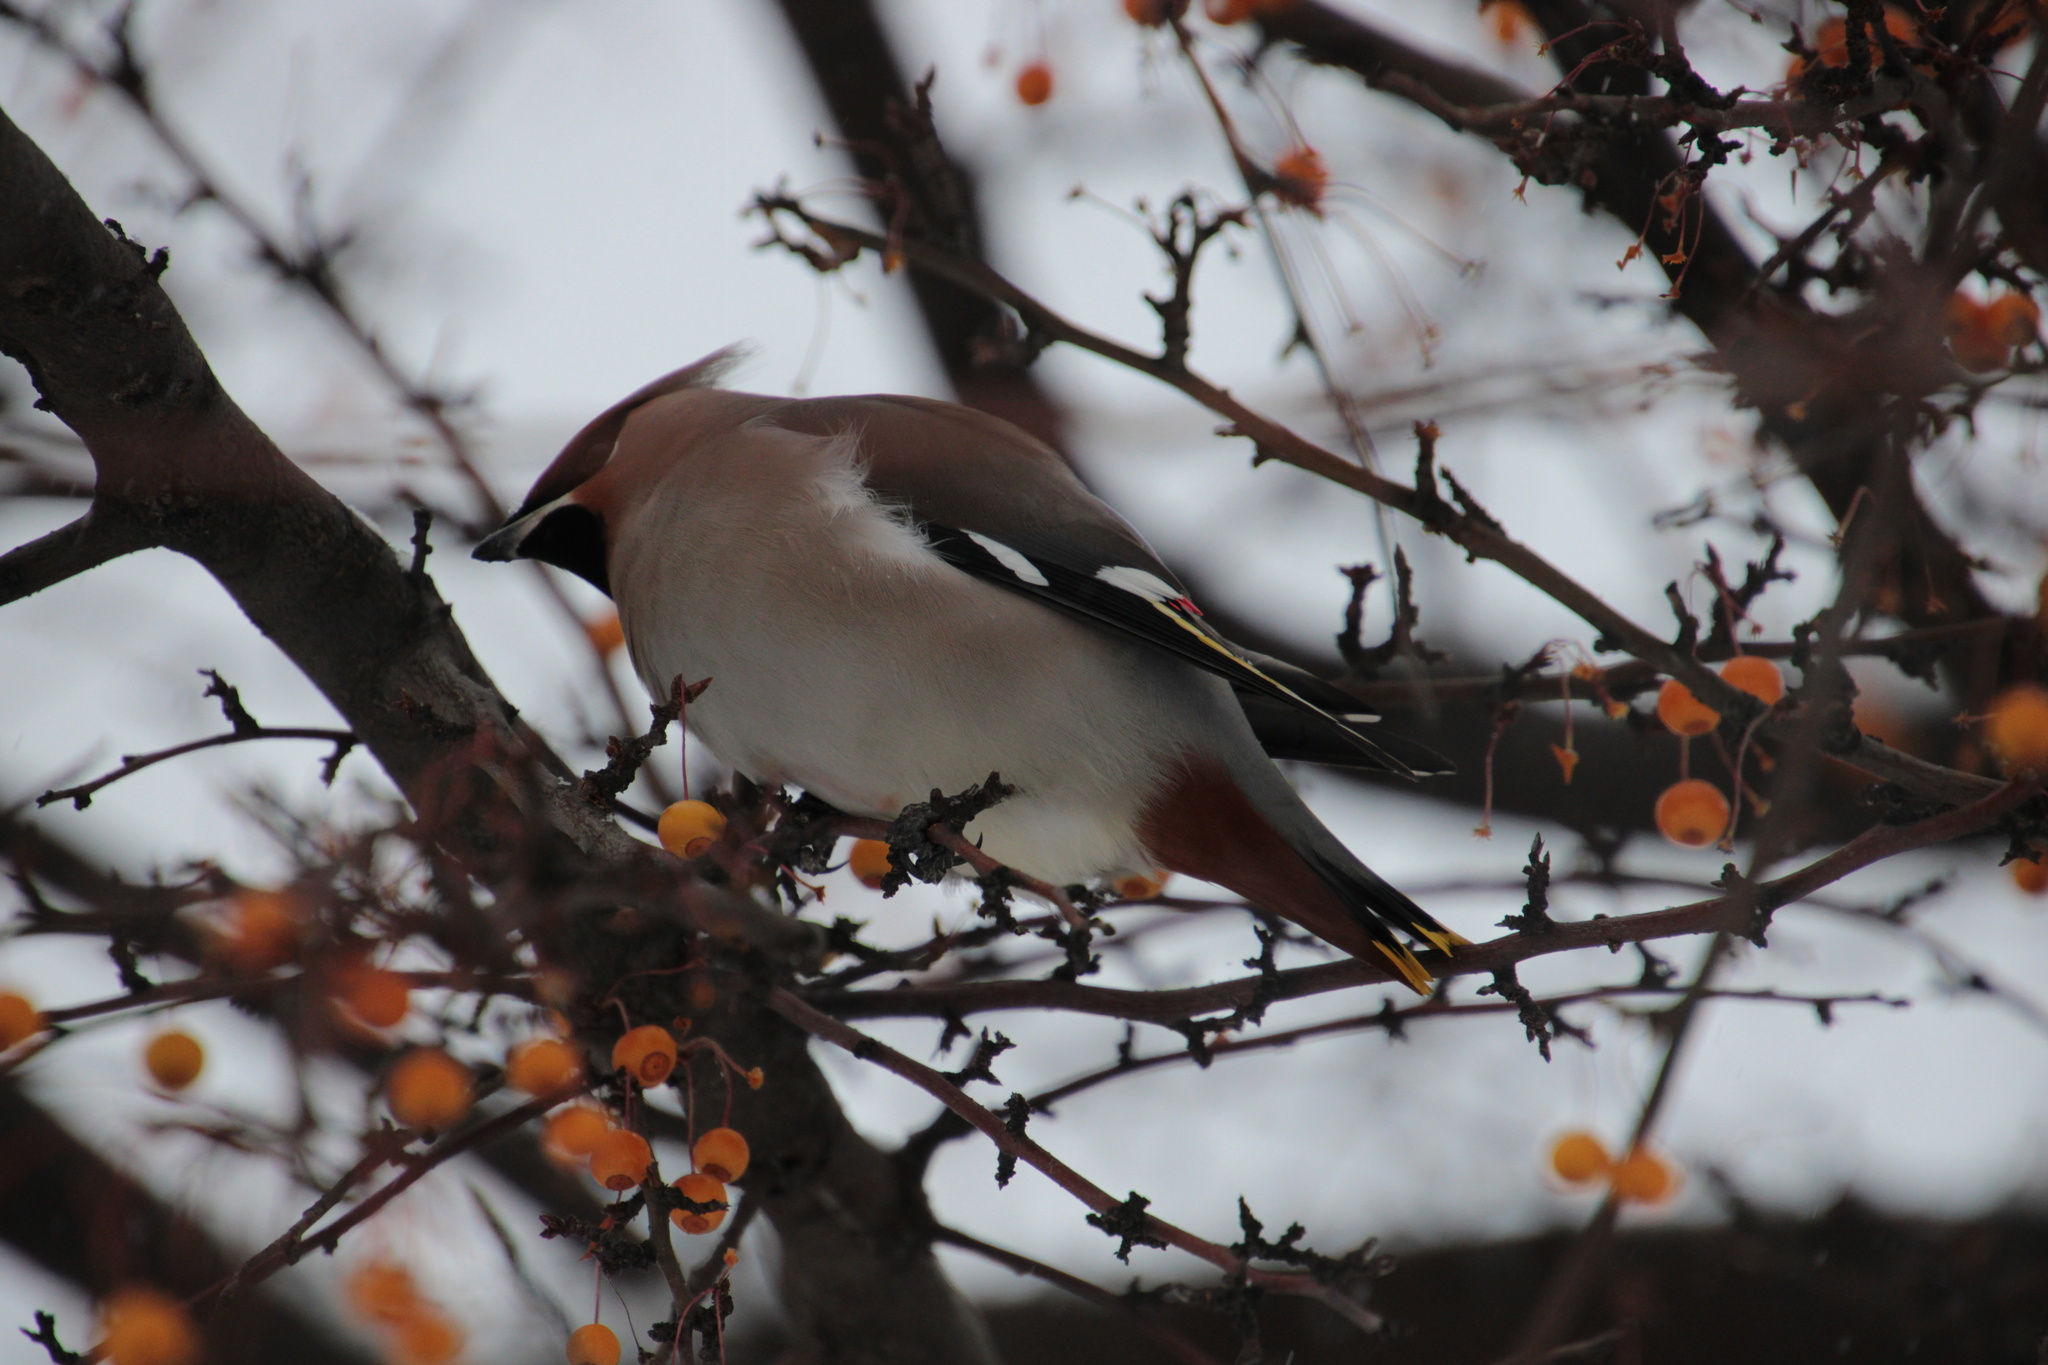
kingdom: Animalia
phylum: Chordata
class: Aves
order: Passeriformes
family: Bombycillidae
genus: Bombycilla
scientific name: Bombycilla garrulus
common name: Bohemian waxwing
